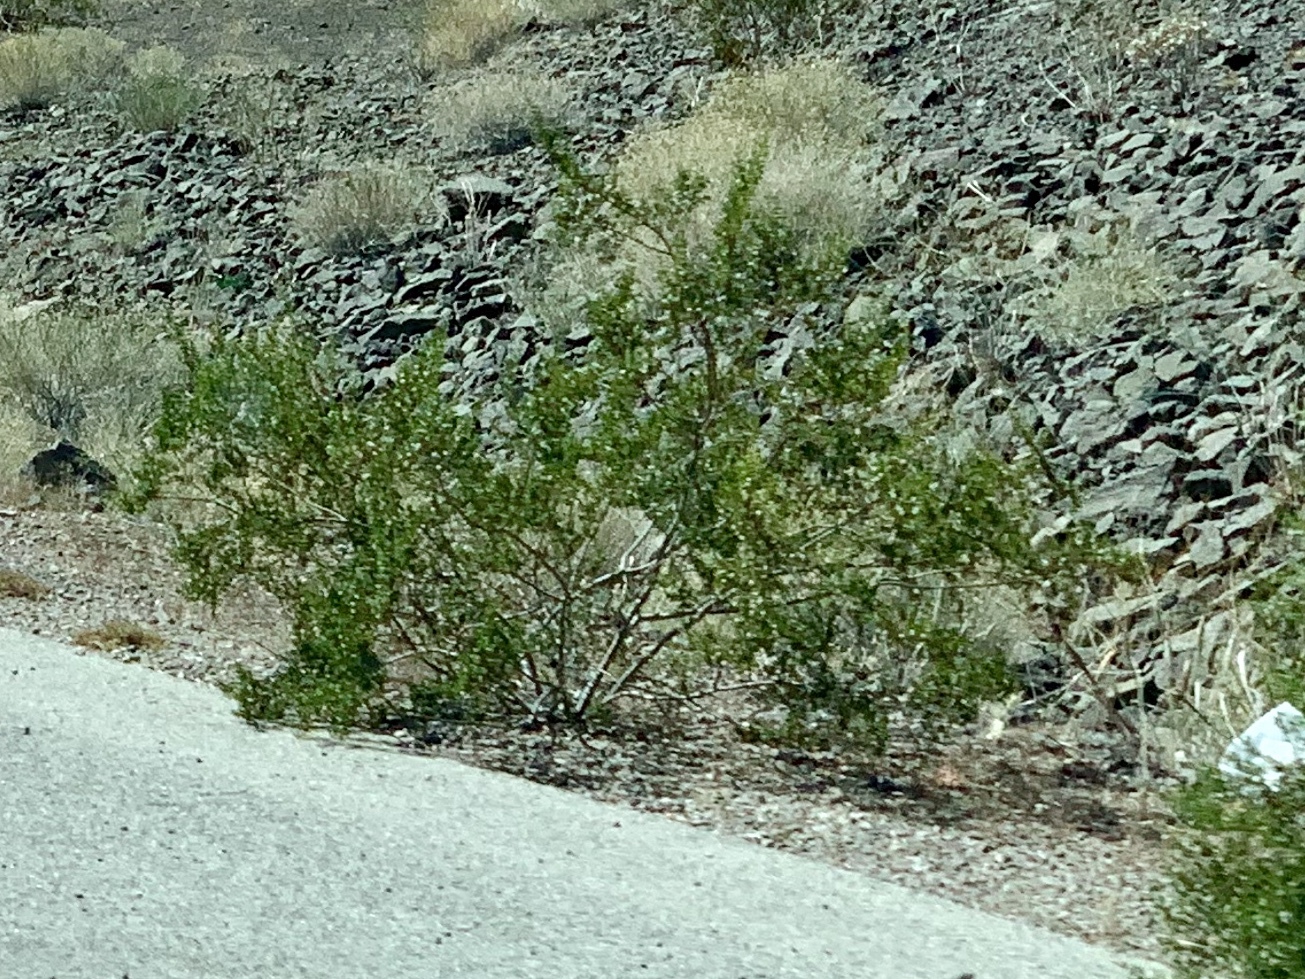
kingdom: Plantae
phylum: Tracheophyta
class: Magnoliopsida
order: Zygophyllales
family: Zygophyllaceae
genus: Larrea
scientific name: Larrea tridentata
